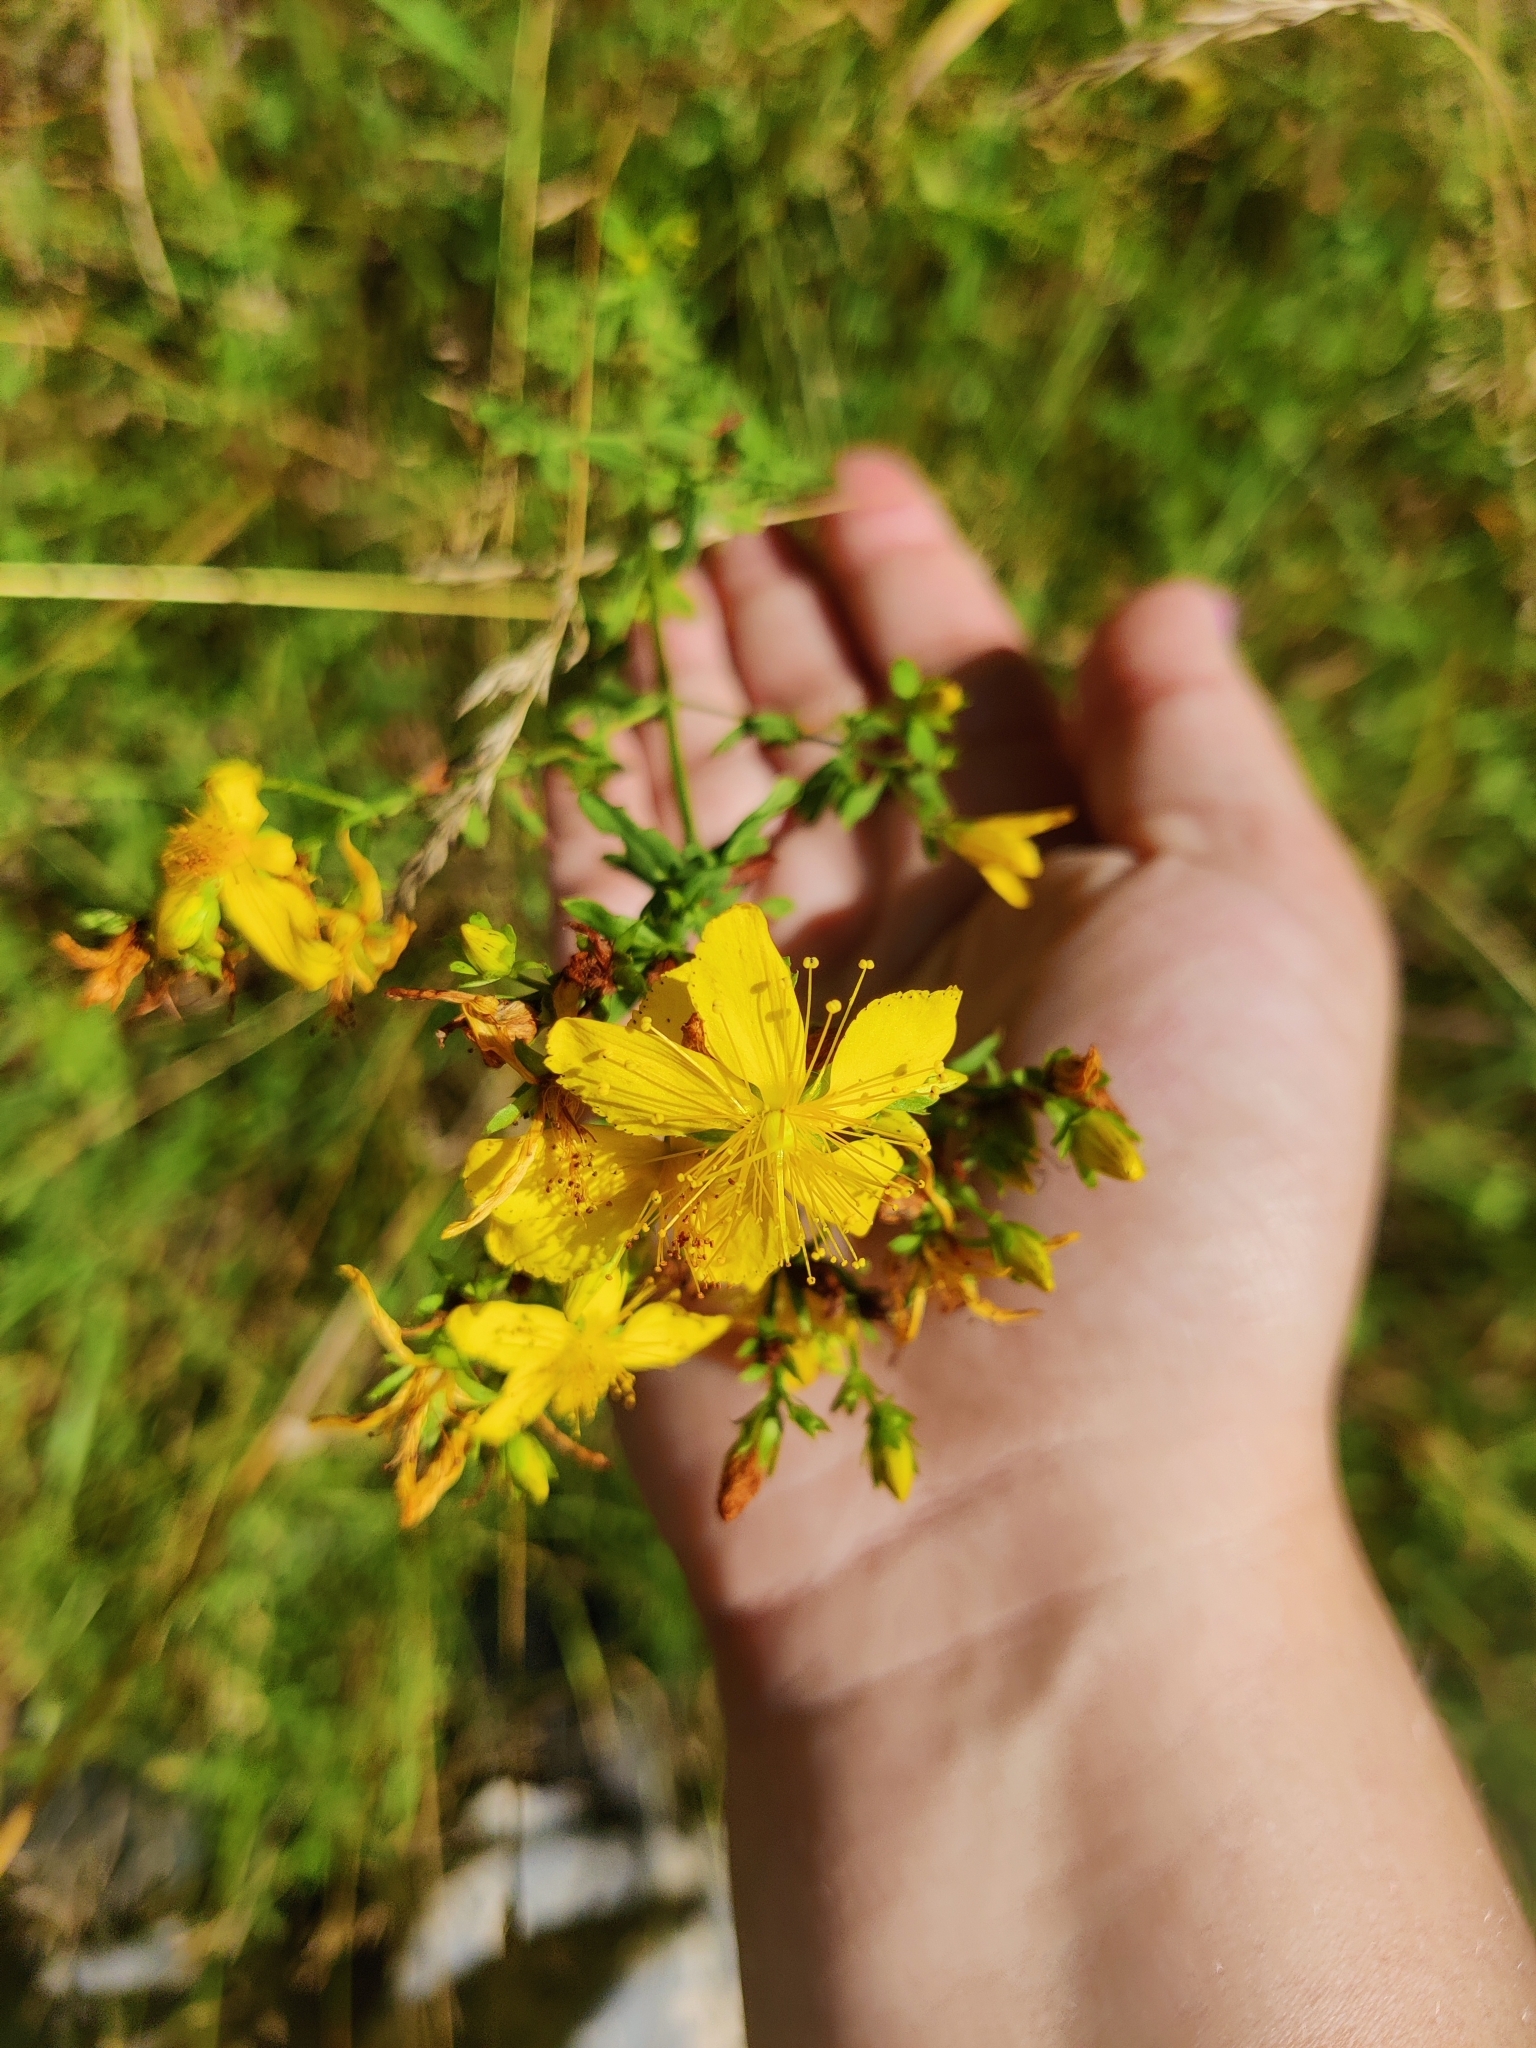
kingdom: Plantae
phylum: Tracheophyta
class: Magnoliopsida
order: Malpighiales
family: Hypericaceae
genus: Hypericum
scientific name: Hypericum perforatum
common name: Common st. johnswort
